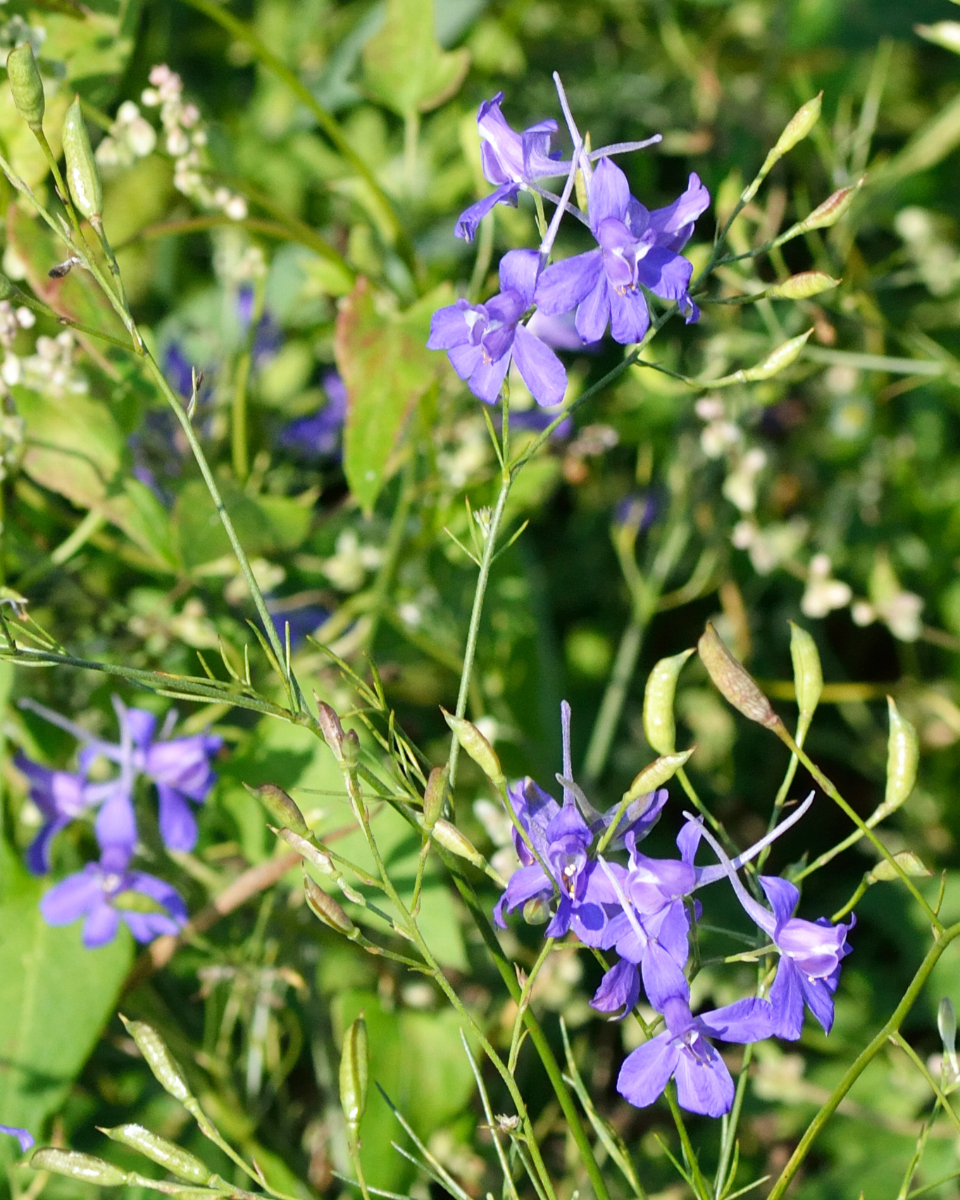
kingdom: Plantae
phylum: Tracheophyta
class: Magnoliopsida
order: Ranunculales
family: Ranunculaceae
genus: Delphinium
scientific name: Delphinium consolida
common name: Branching larkspur
